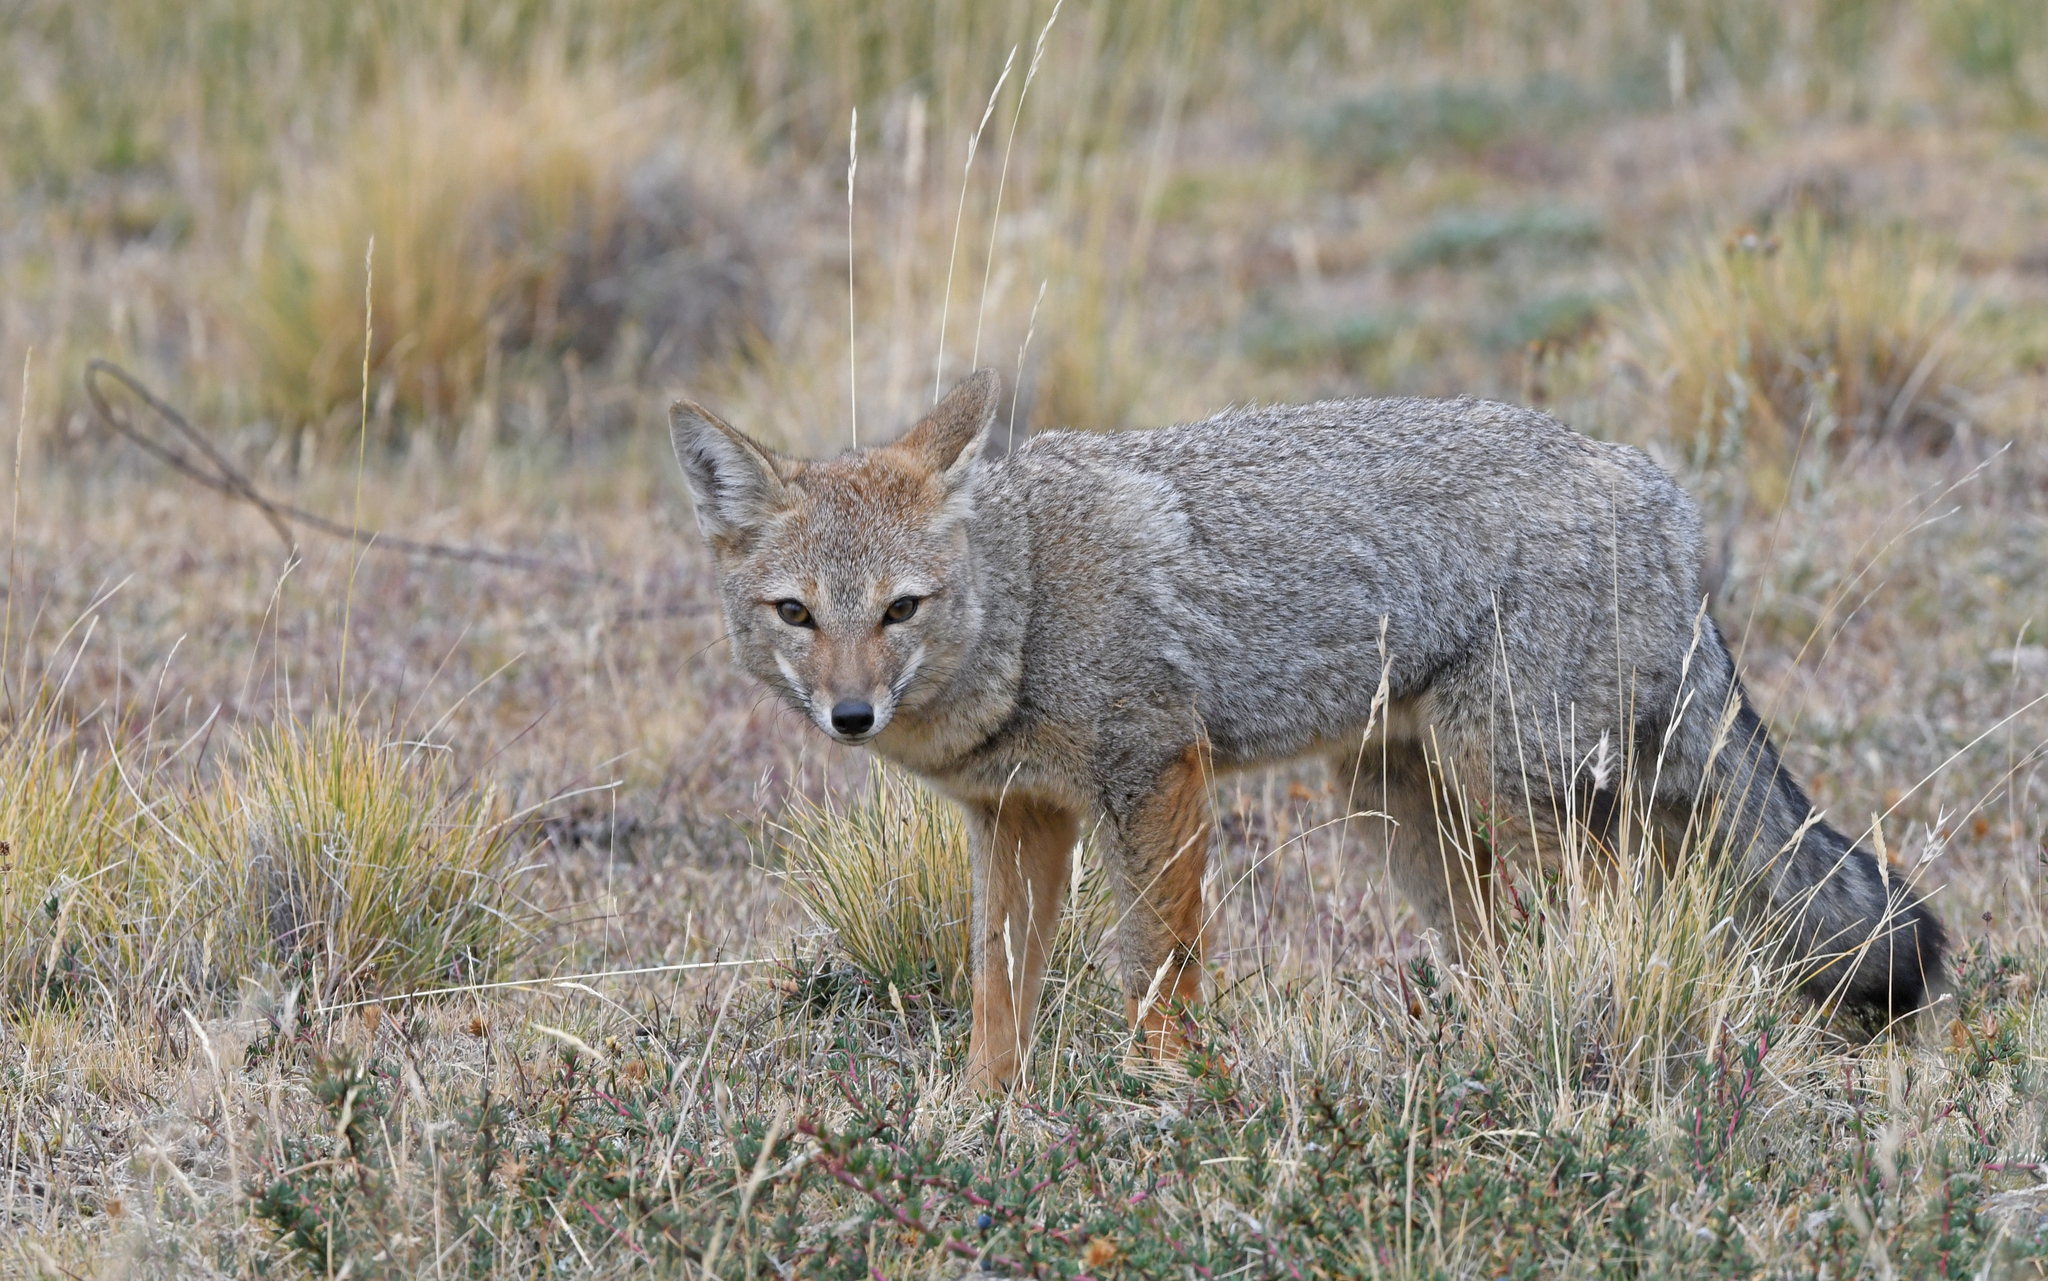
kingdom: Animalia
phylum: Chordata
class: Mammalia
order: Carnivora
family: Canidae
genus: Lycalopex
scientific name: Lycalopex gymnocercus
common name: Pampas fox
